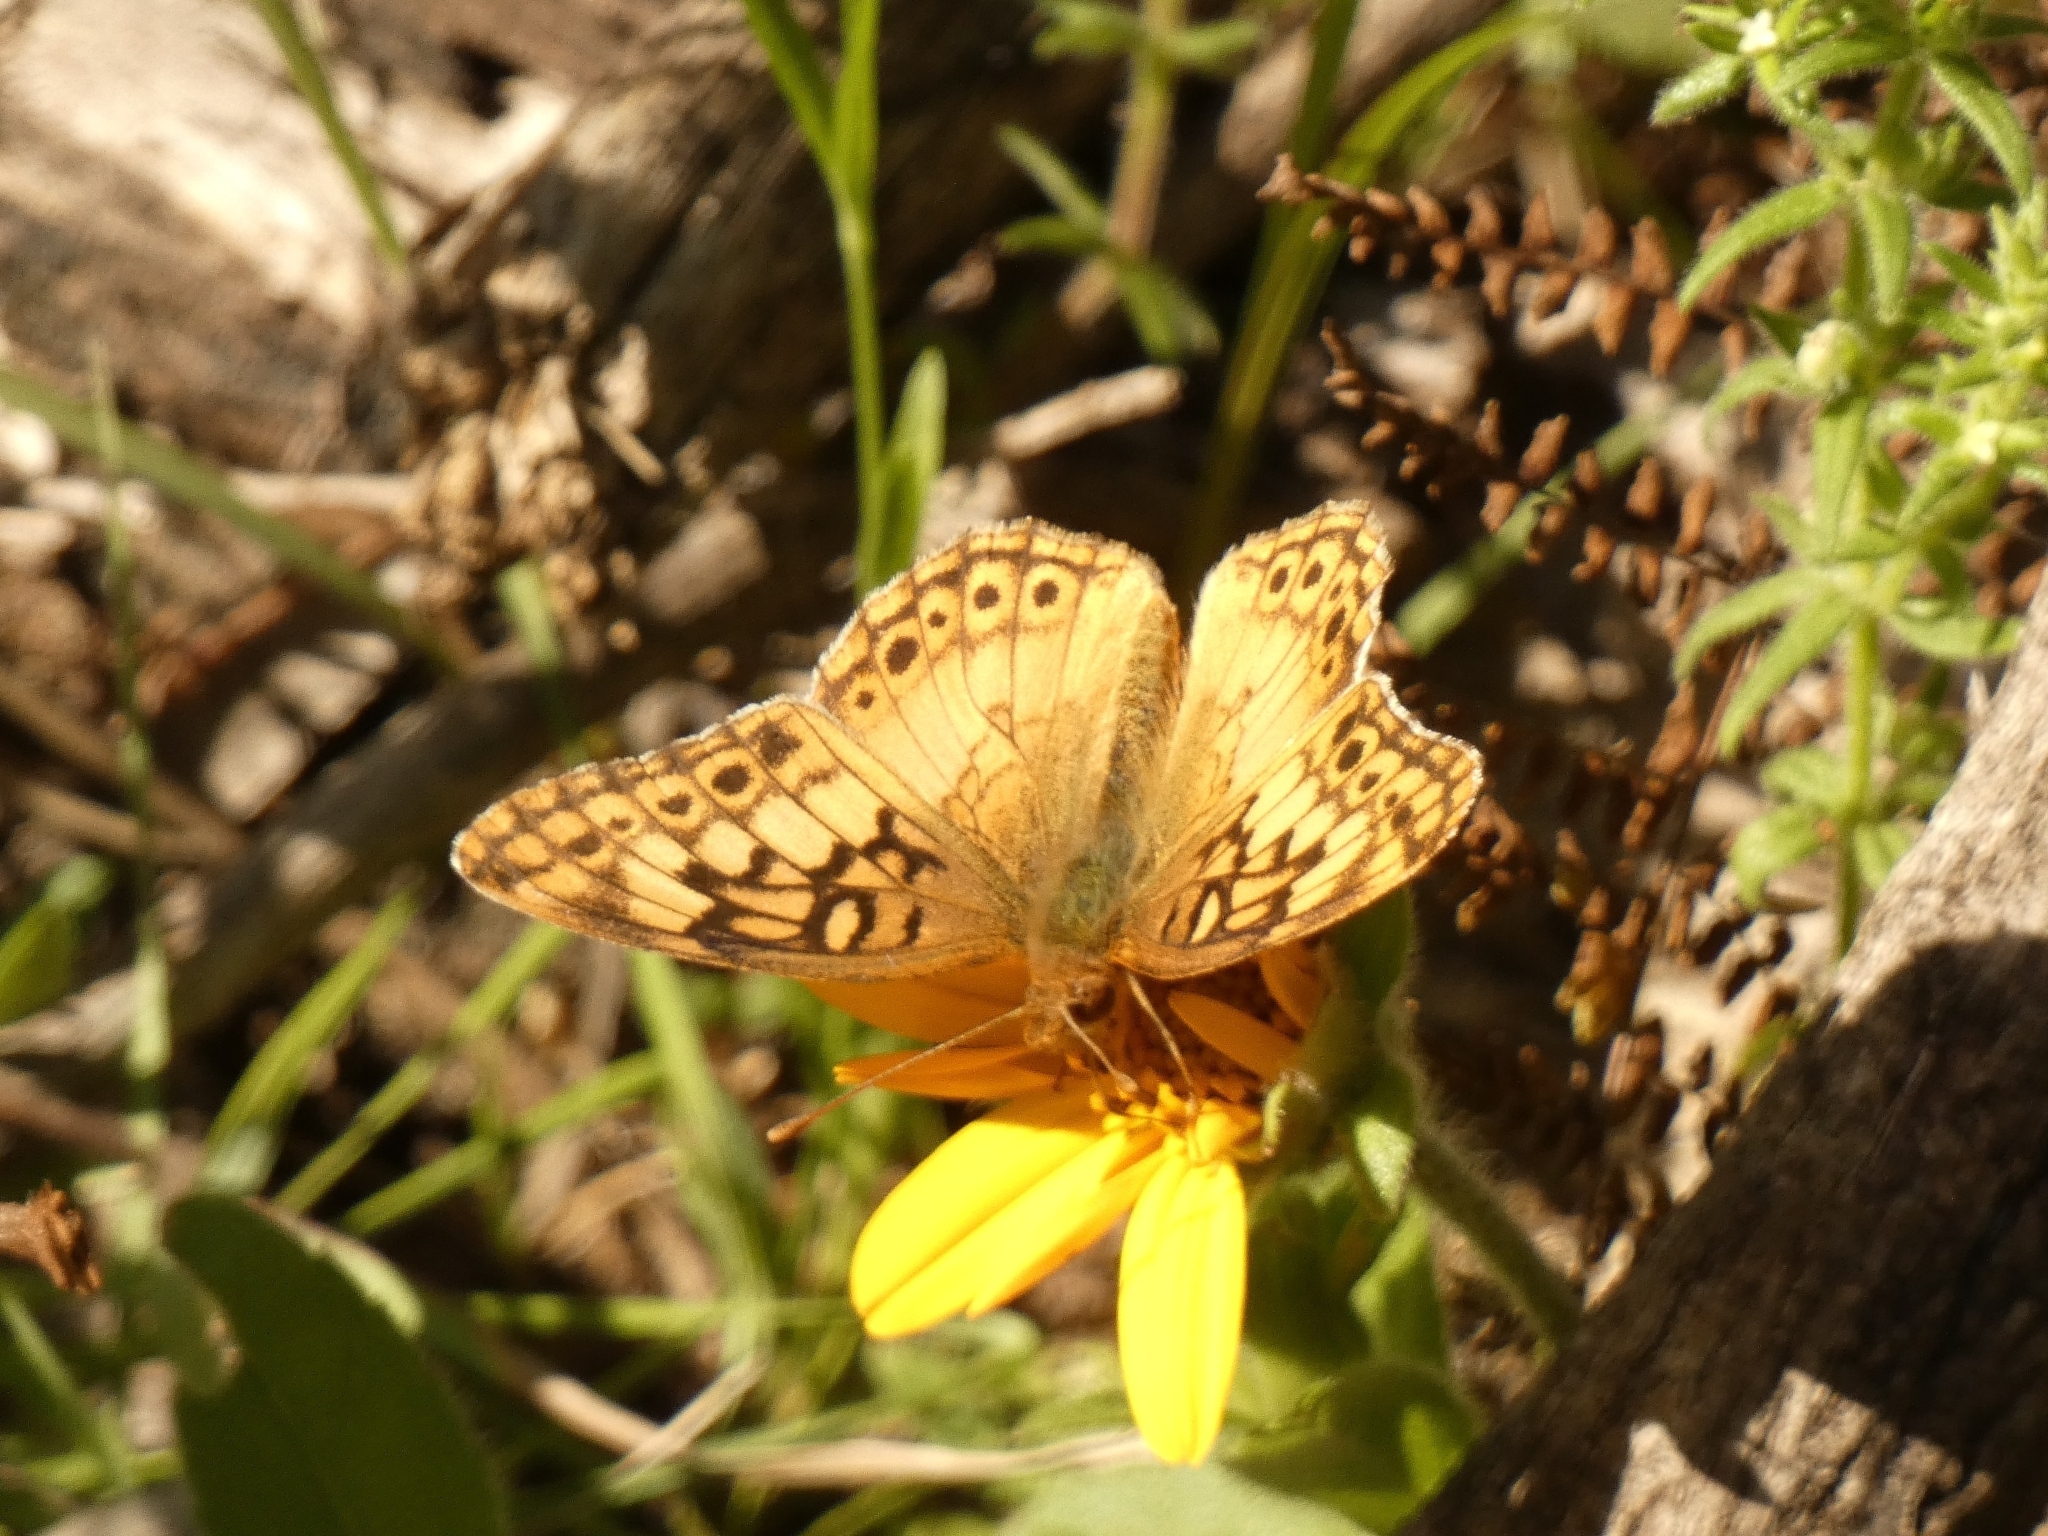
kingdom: Animalia
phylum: Arthropoda
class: Insecta
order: Lepidoptera
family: Nymphalidae
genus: Euptoieta
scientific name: Euptoieta hortensia
